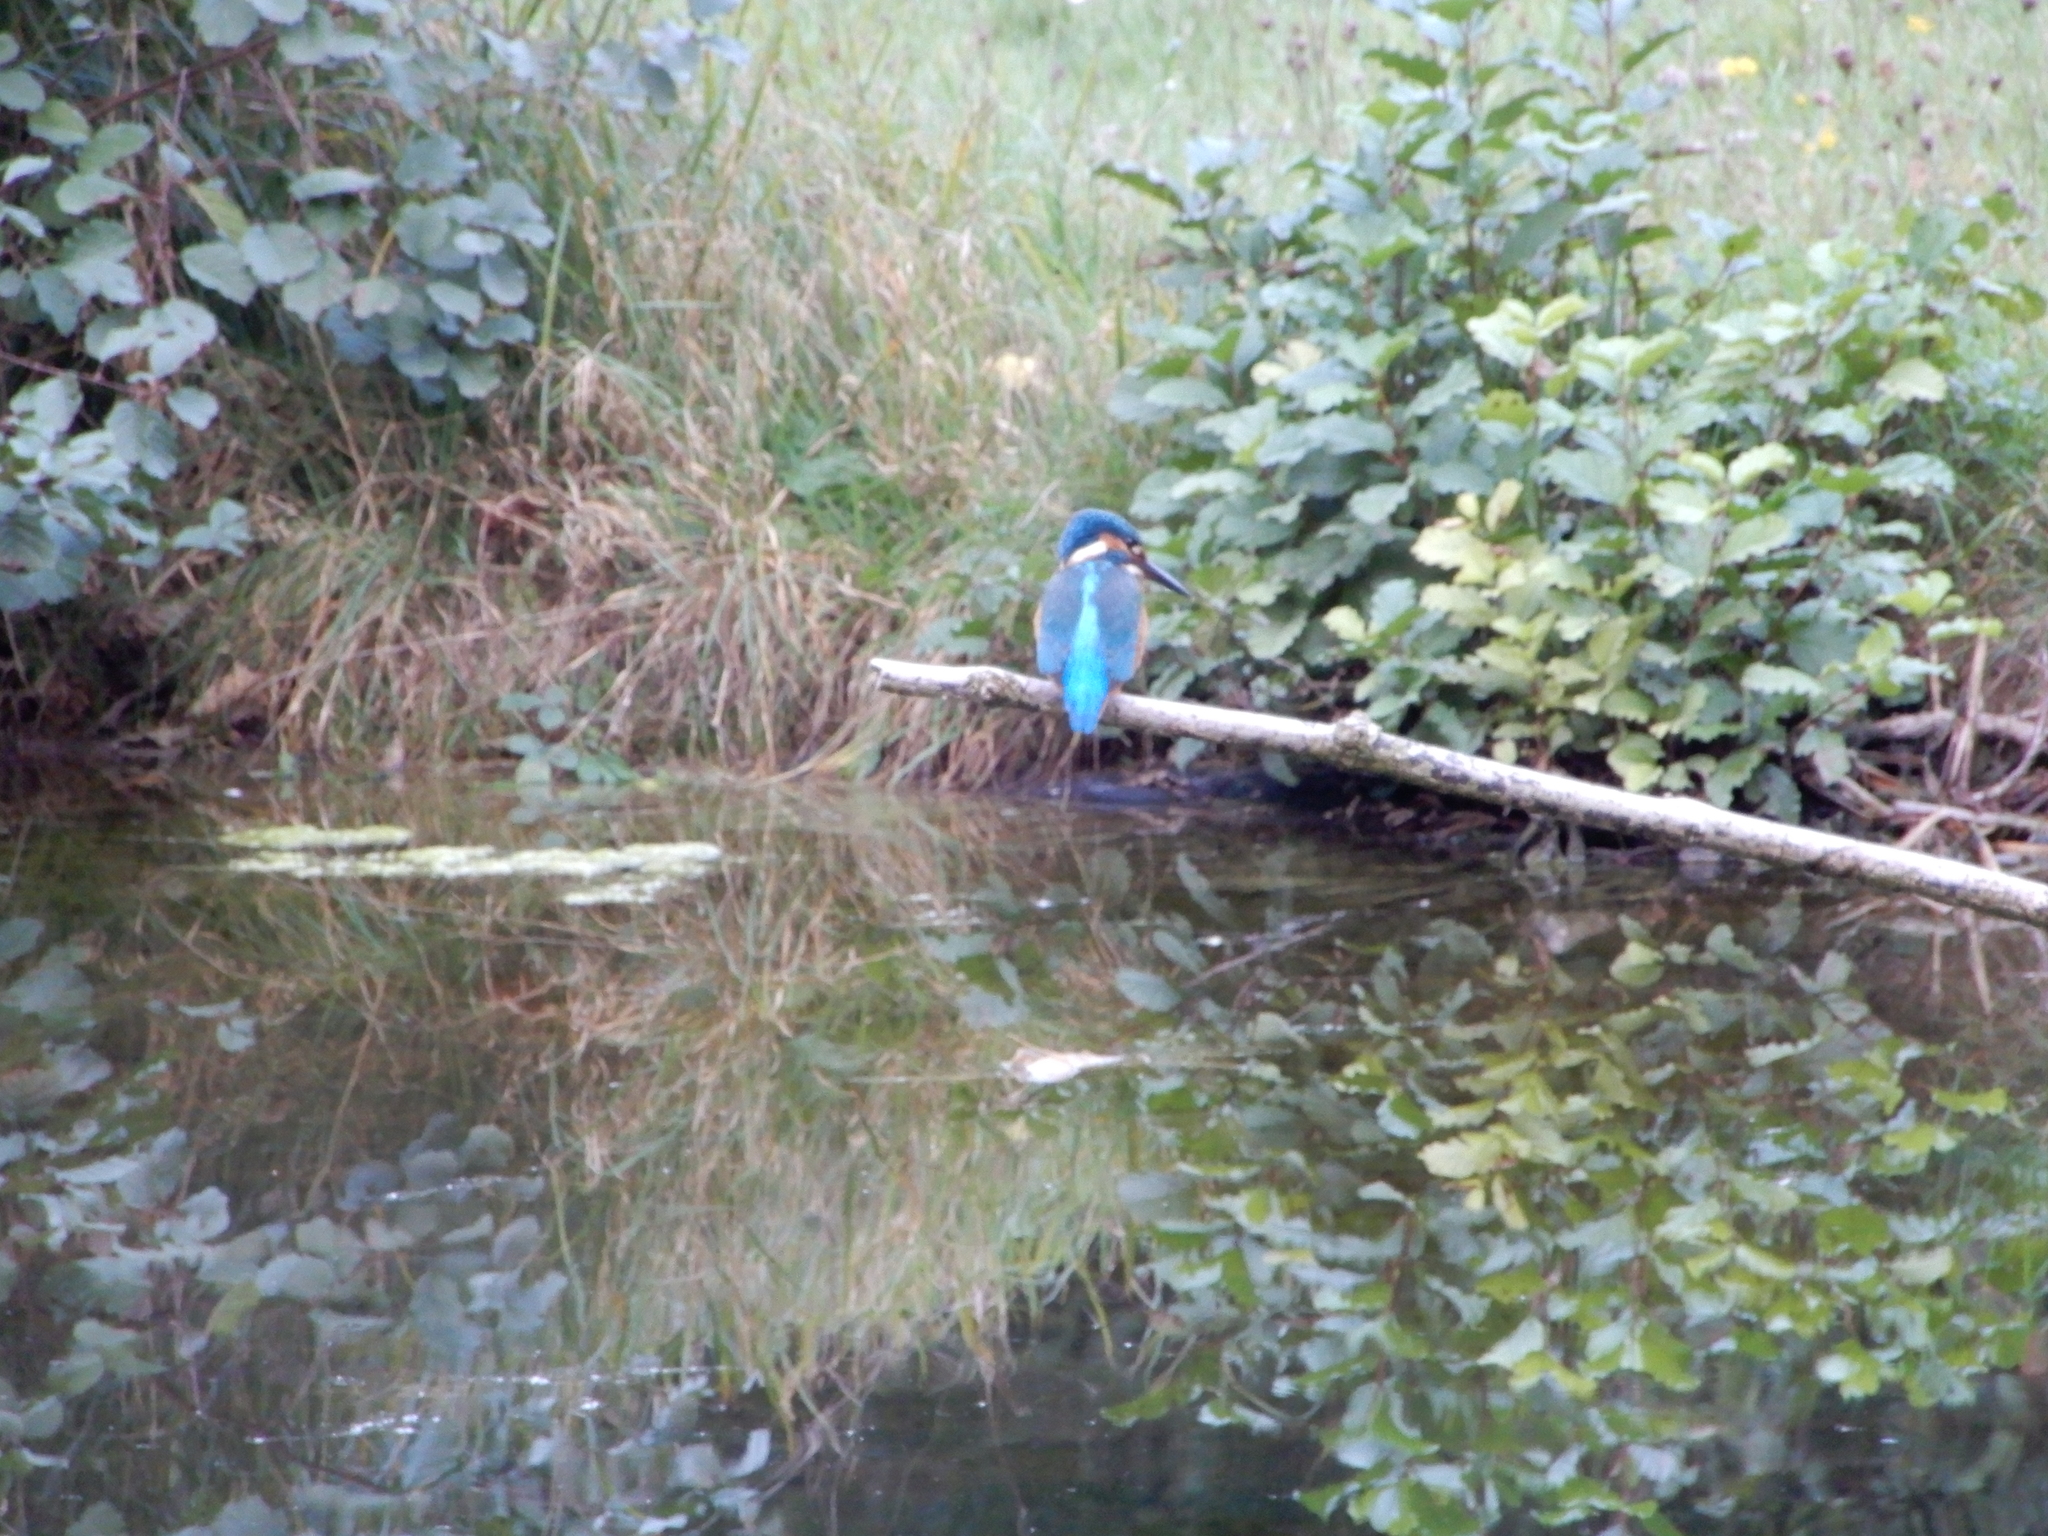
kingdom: Animalia
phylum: Chordata
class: Aves
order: Coraciiformes
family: Alcedinidae
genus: Alcedo
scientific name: Alcedo atthis
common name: Common kingfisher
